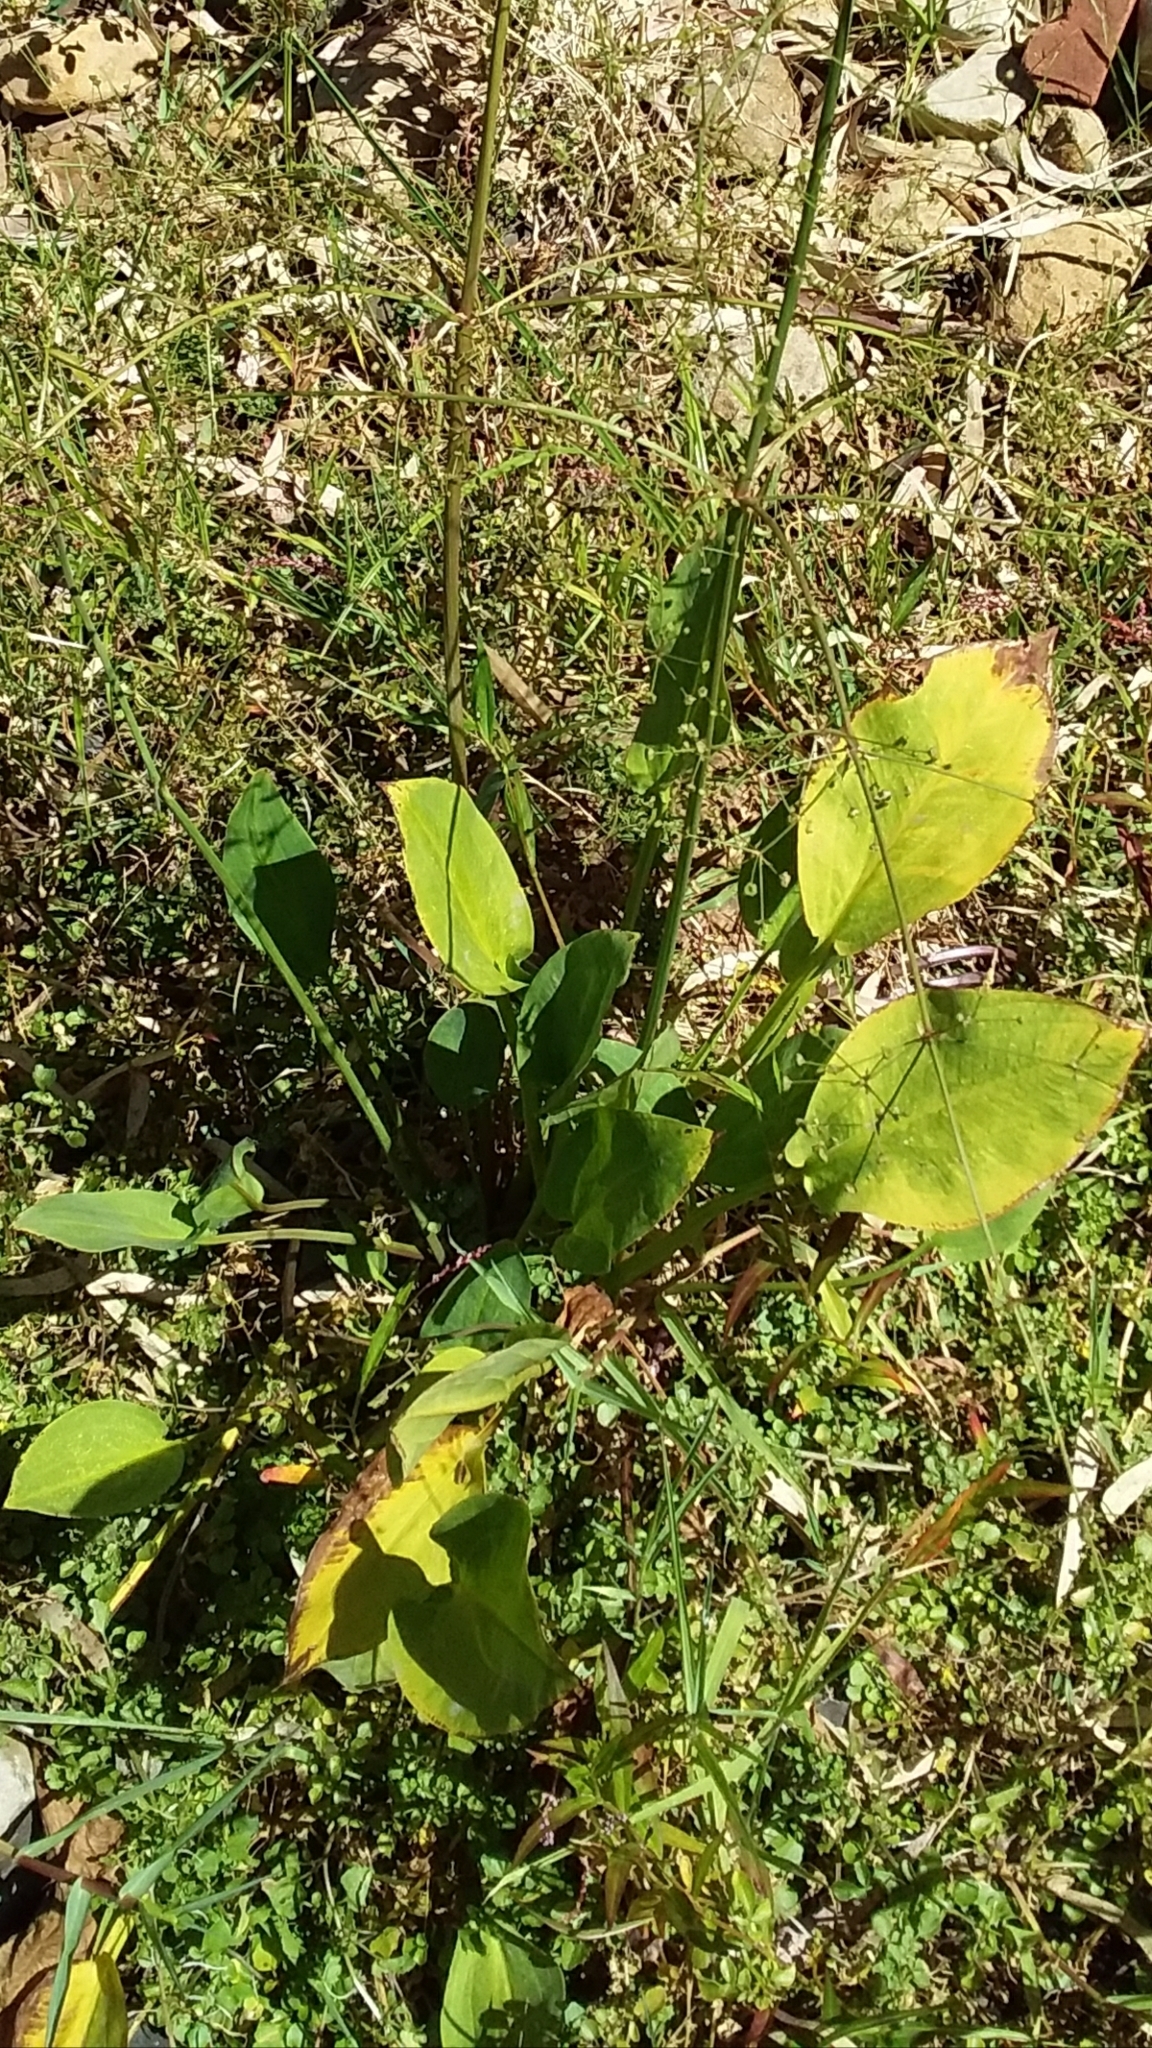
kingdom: Plantae
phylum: Tracheophyta
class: Liliopsida
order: Alismatales
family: Alismataceae
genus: Alisma
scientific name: Alisma plantago-aquatica
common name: Water-plantain
